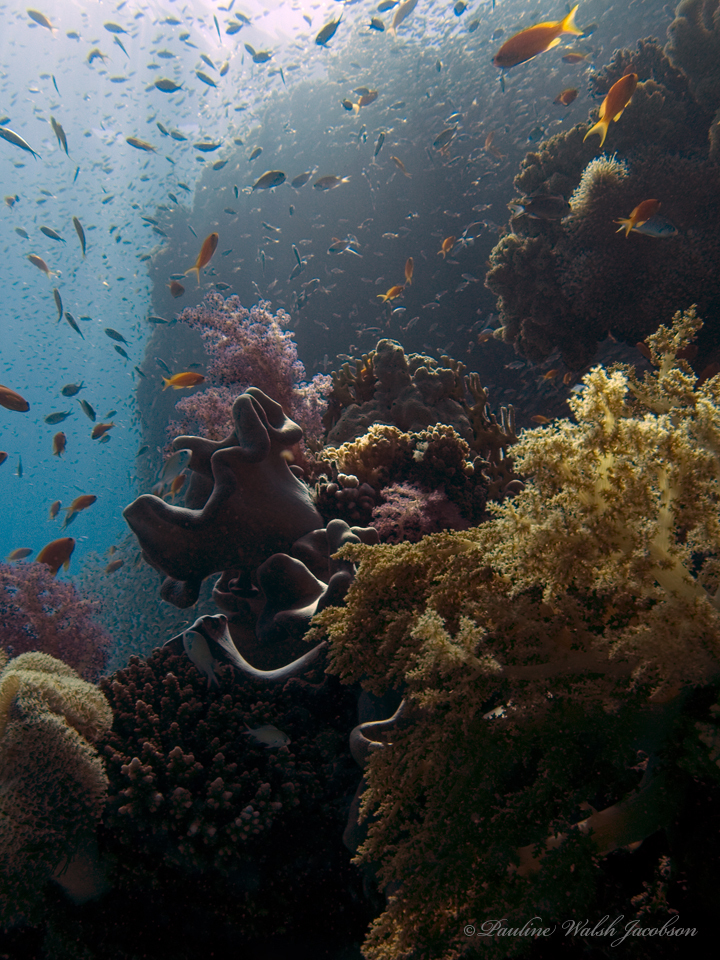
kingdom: Animalia
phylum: Chordata
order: Perciformes
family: Serranidae
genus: Pseudanthias
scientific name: Pseudanthias squamipinnis
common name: Scalefin anthias
